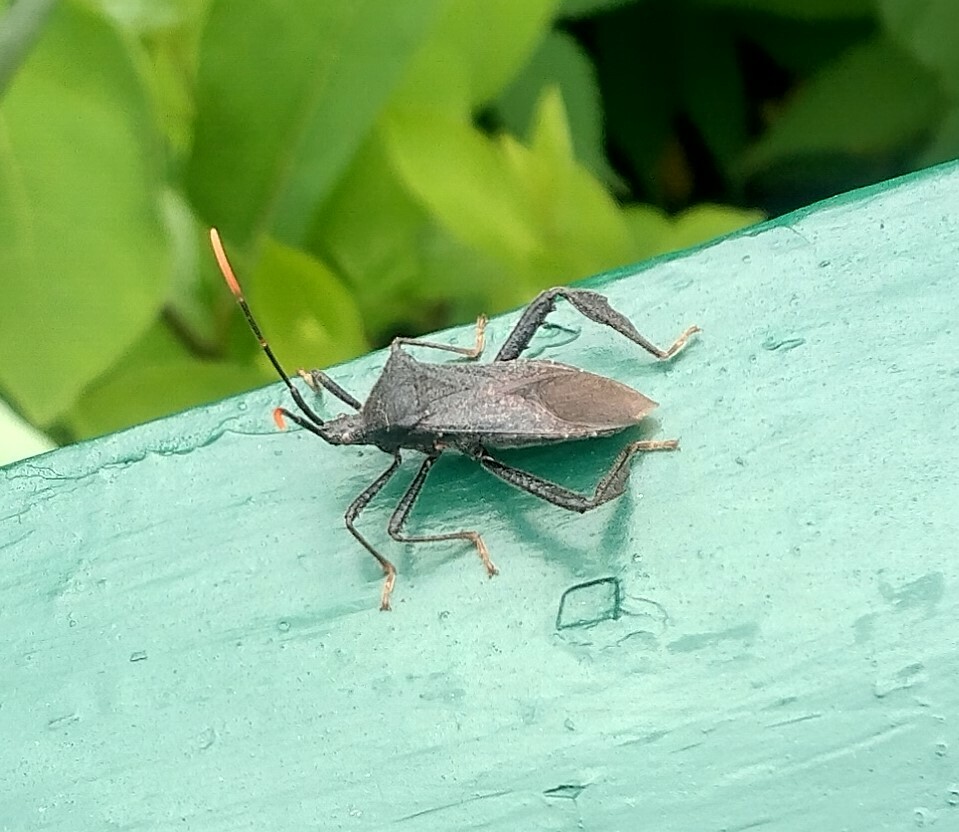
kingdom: Animalia
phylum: Arthropoda
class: Insecta
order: Hemiptera
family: Coreidae
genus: Acanthocephala
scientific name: Acanthocephala terminalis
